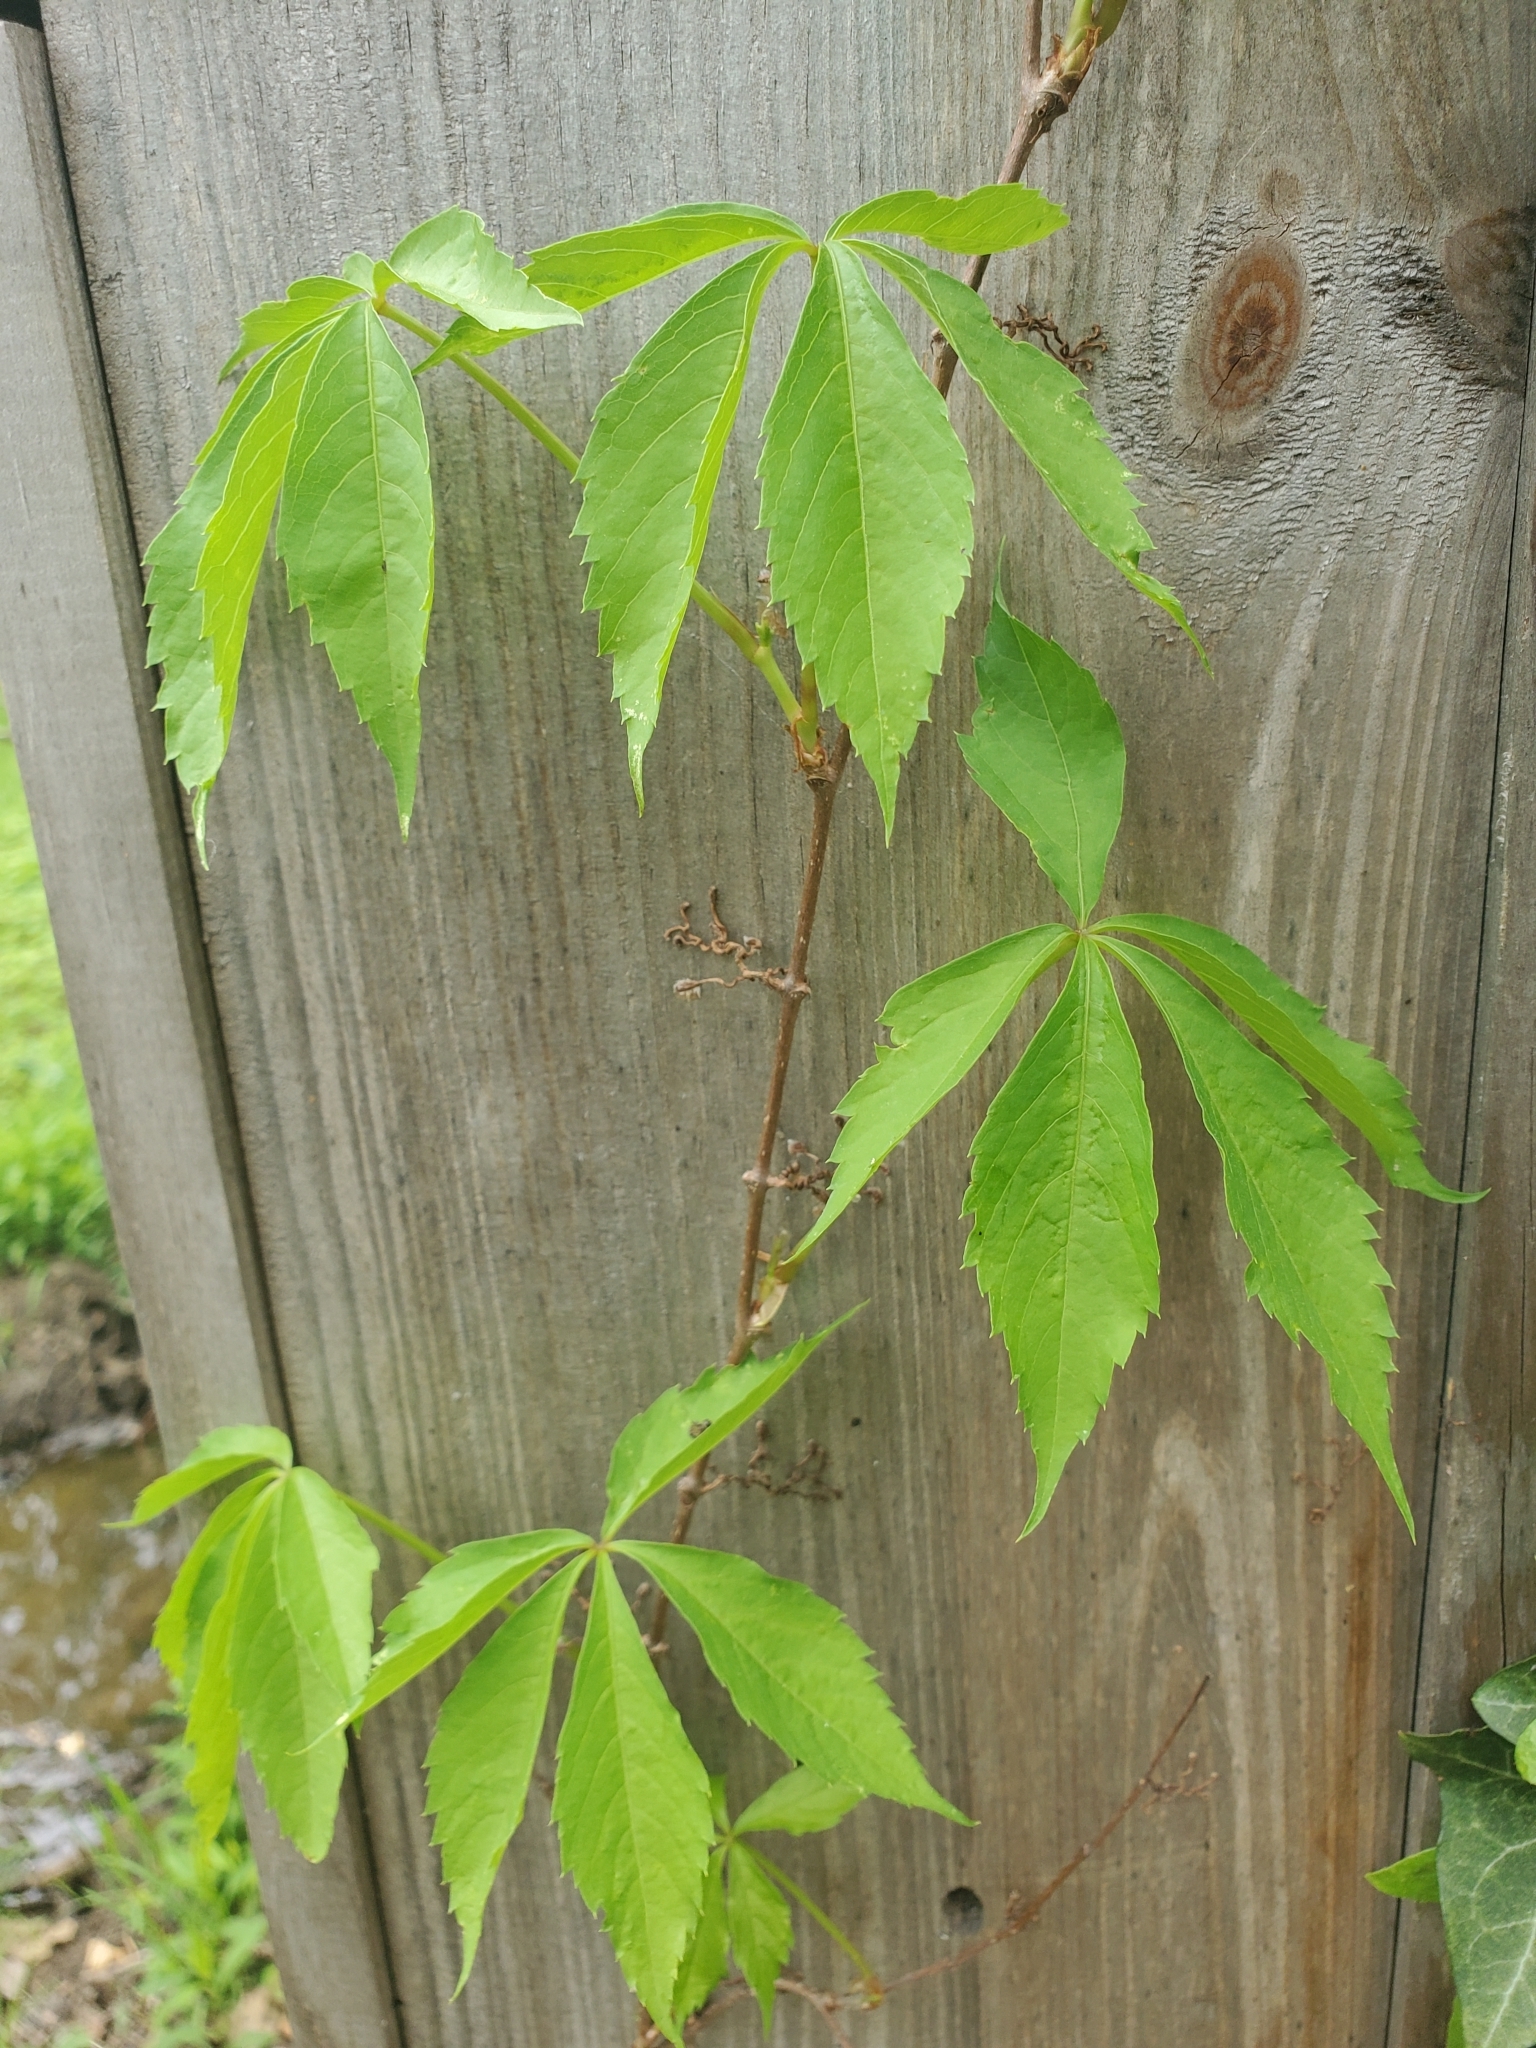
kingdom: Plantae
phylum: Tracheophyta
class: Magnoliopsida
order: Vitales
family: Vitaceae
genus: Parthenocissus
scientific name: Parthenocissus quinquefolia
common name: Virginia-creeper
